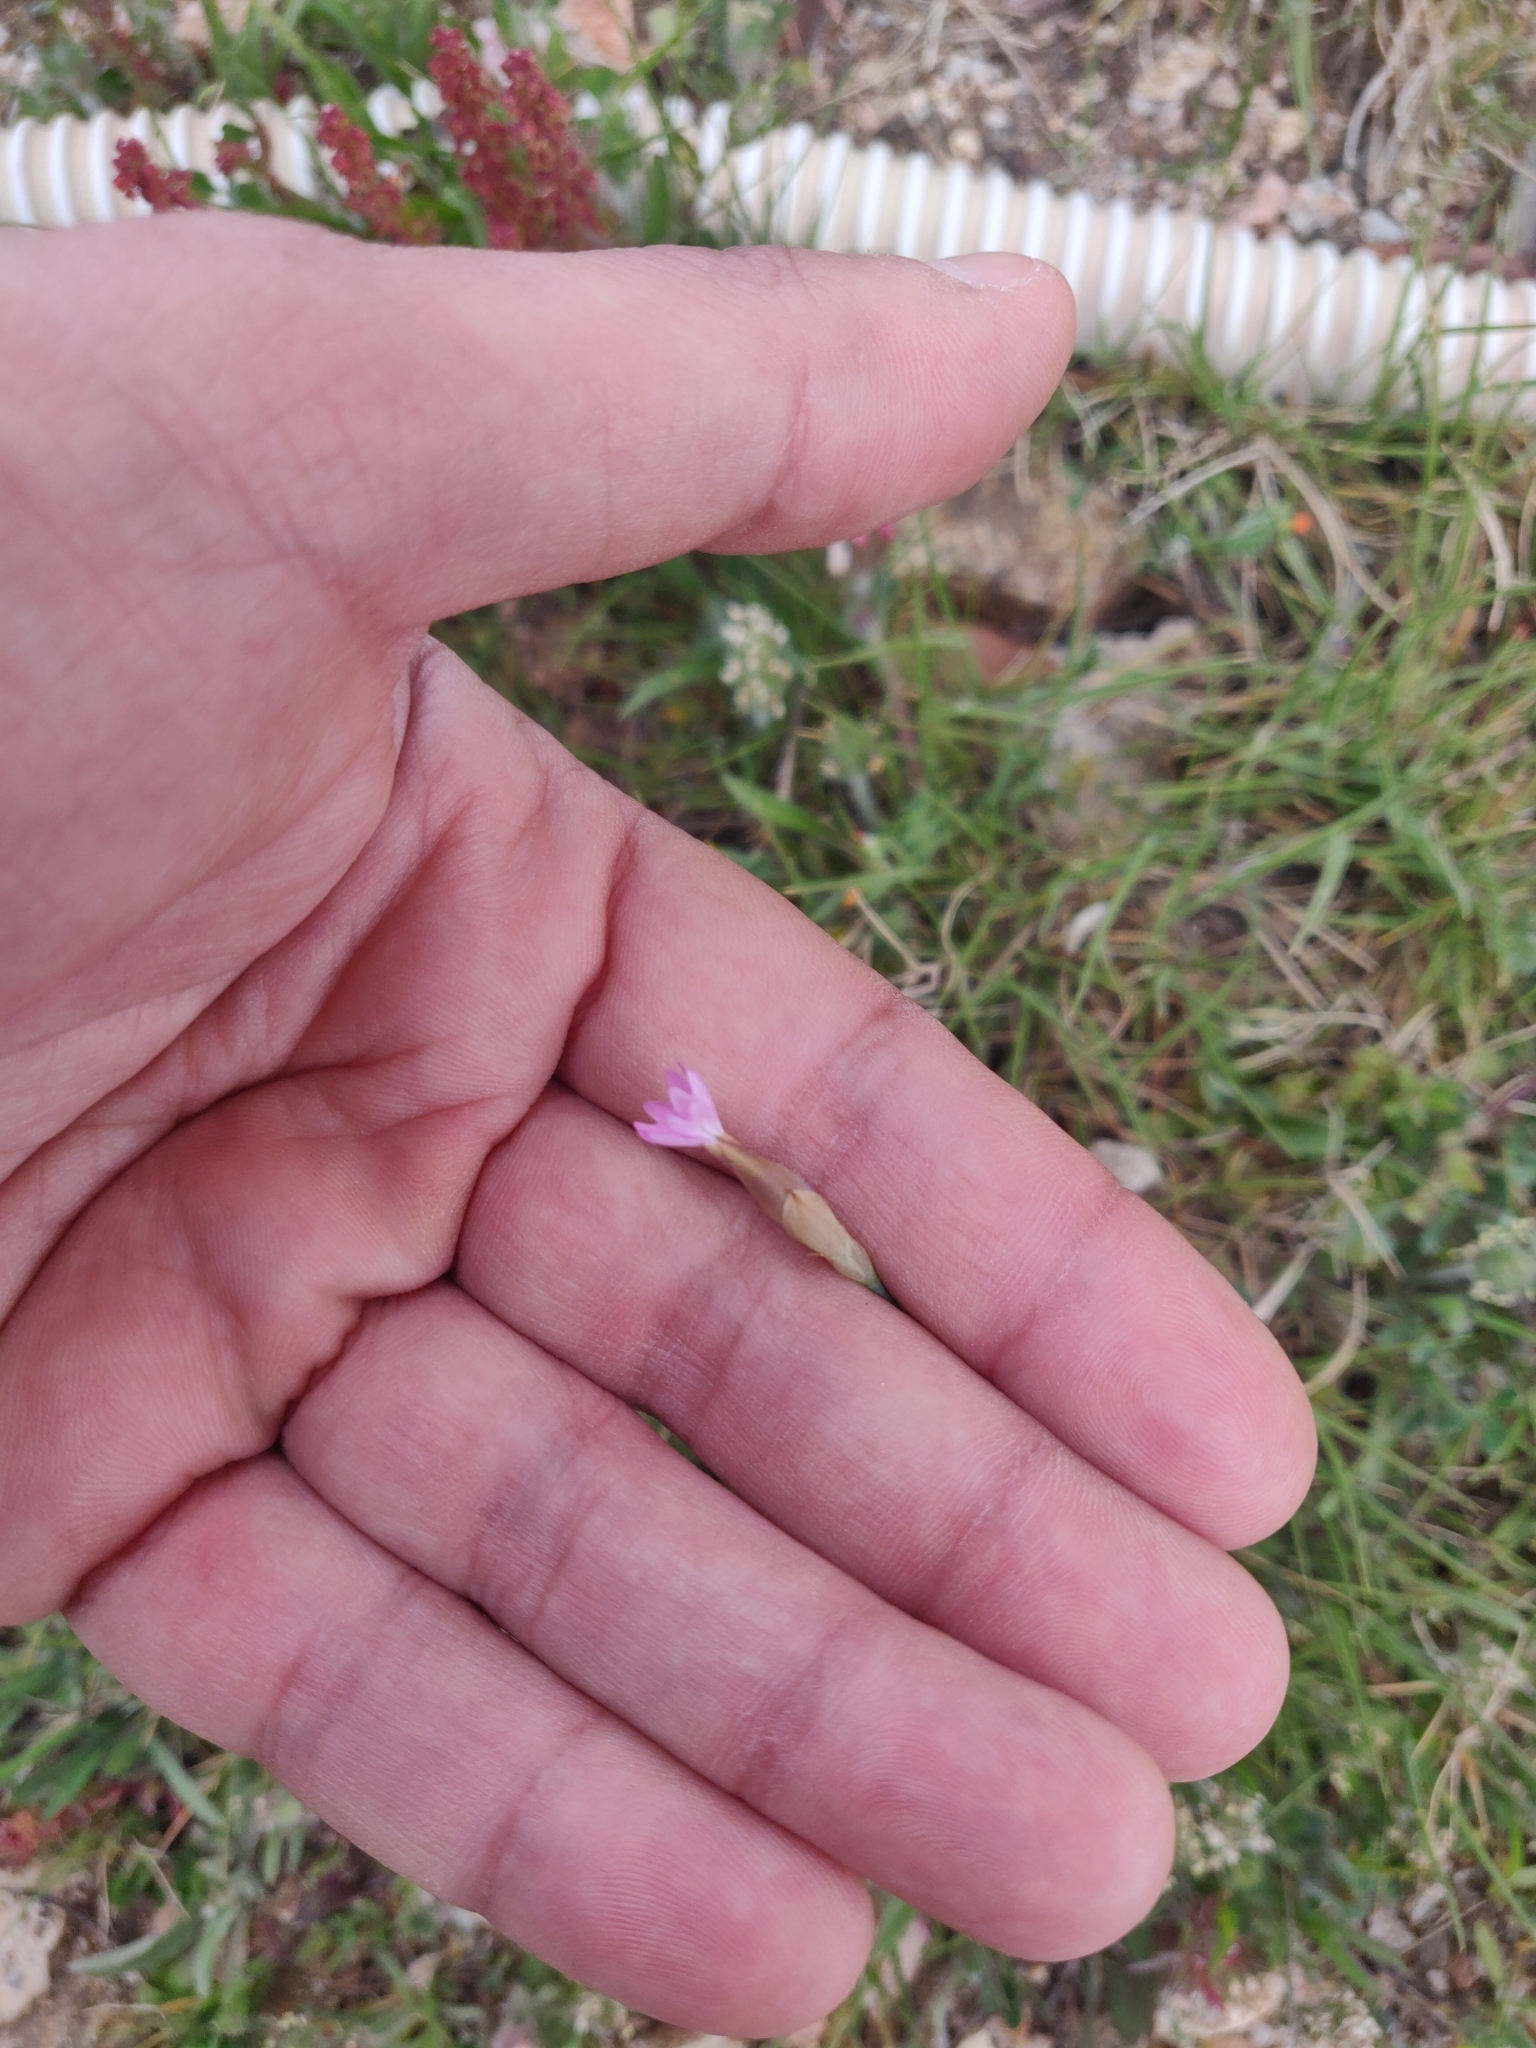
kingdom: Plantae
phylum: Tracheophyta
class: Magnoliopsida
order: Caryophyllales
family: Caryophyllaceae
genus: Petrorhagia
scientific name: Petrorhagia prolifera
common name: Proliferous pink
